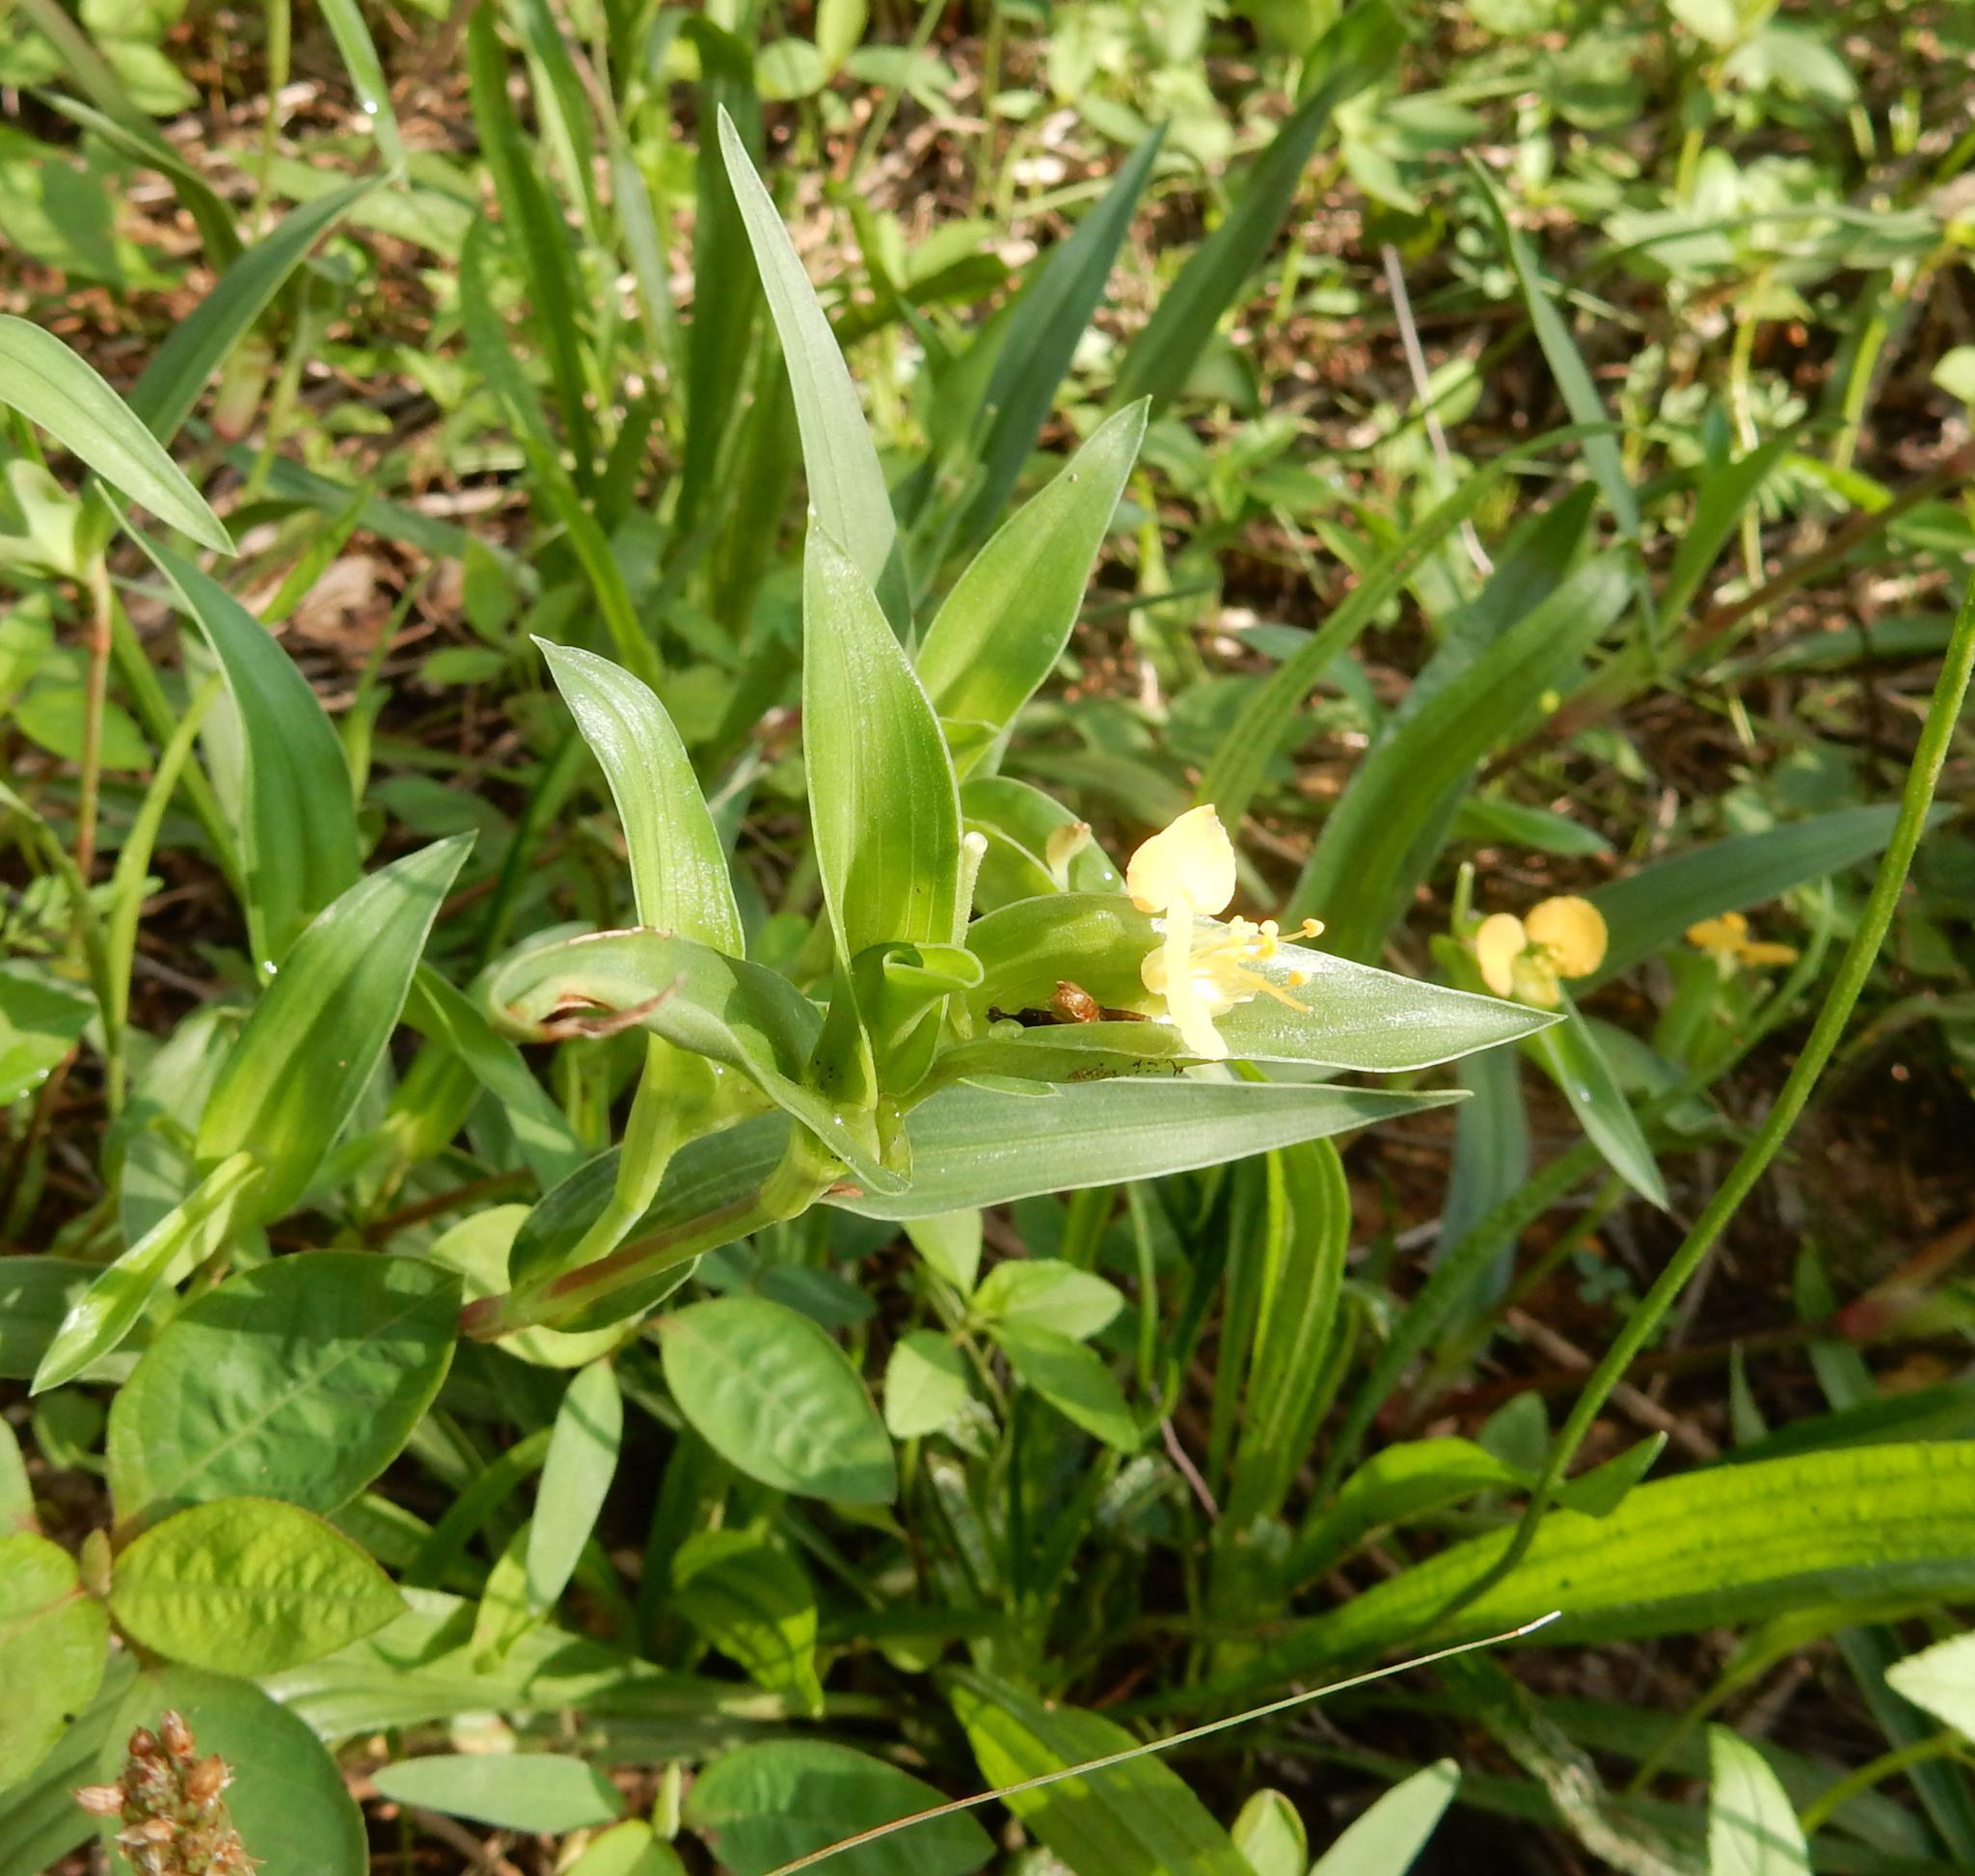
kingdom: Plantae
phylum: Tracheophyta
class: Liliopsida
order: Commelinales
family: Commelinaceae
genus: Commelina
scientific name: Commelina africana
